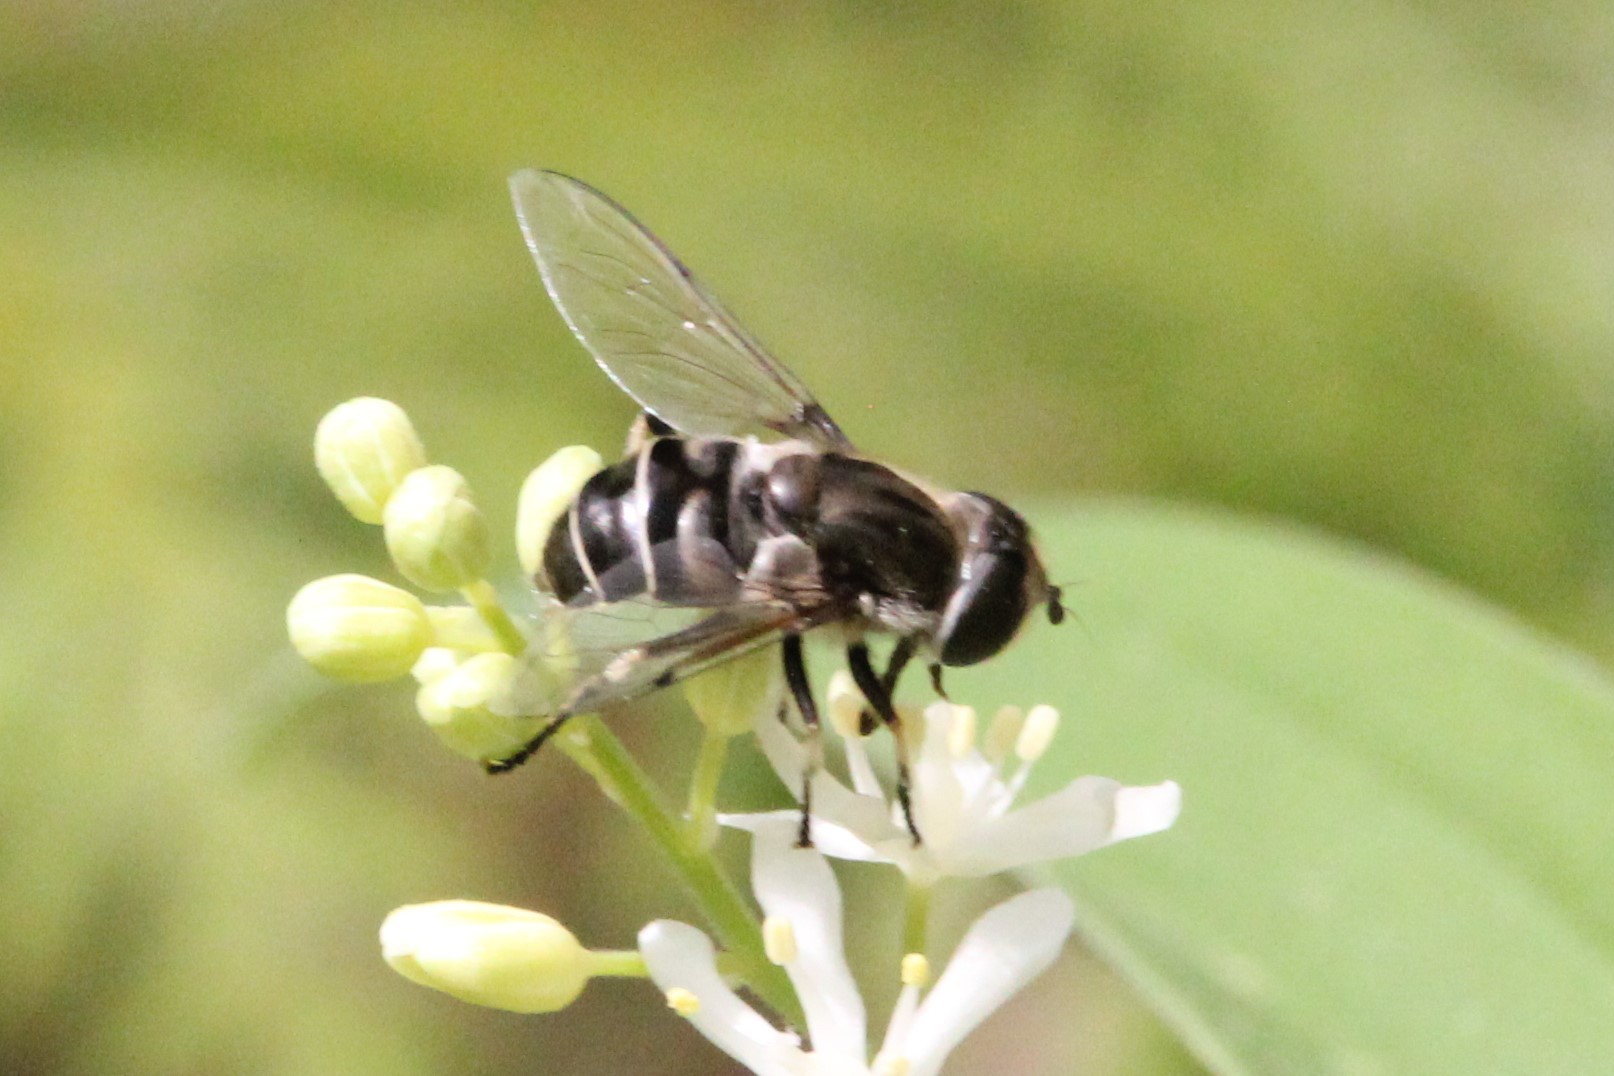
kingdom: Animalia
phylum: Arthropoda
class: Insecta
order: Diptera
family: Syrphidae
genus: Eristalis
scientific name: Eristalis dimidiata
